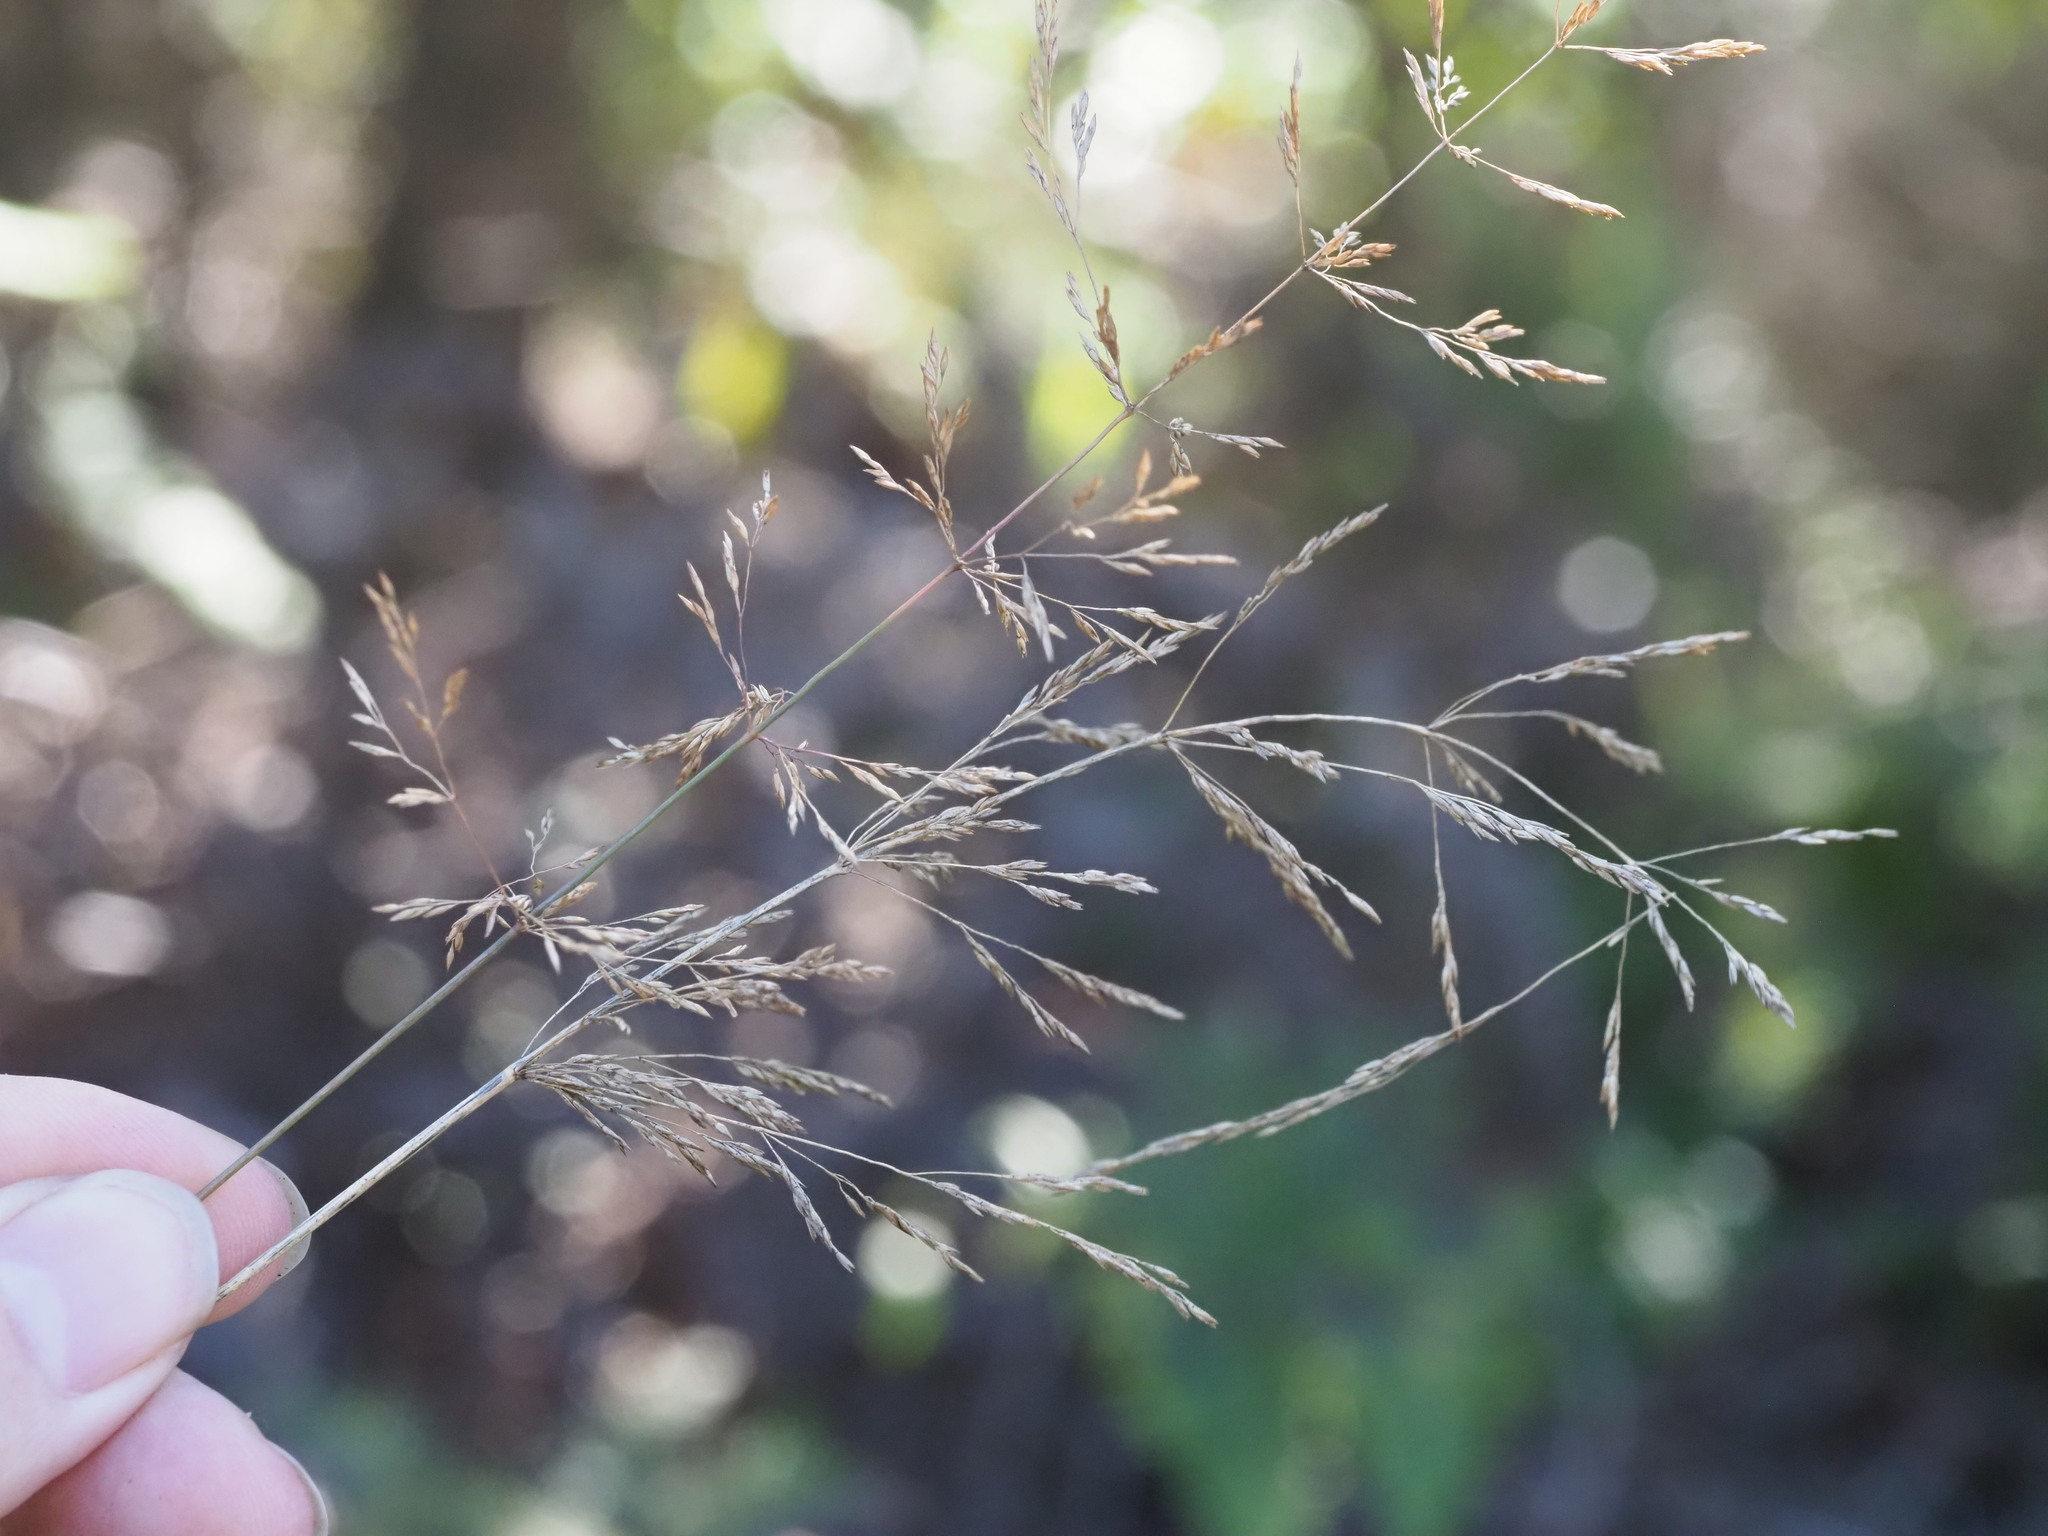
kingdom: Plantae
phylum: Tracheophyta
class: Liliopsida
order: Poales
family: Poaceae
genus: Agrostis
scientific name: Agrostis stolonifera
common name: Creeping bentgrass
